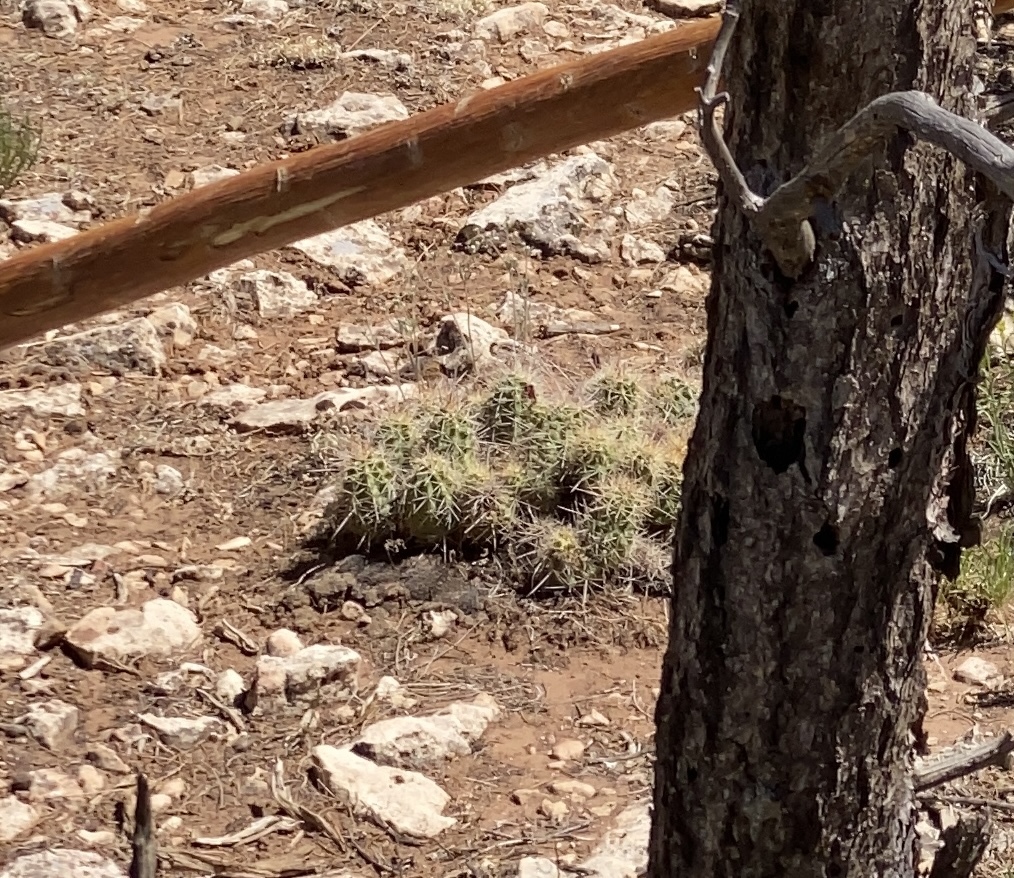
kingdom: Plantae
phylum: Tracheophyta
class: Magnoliopsida
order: Caryophyllales
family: Cactaceae
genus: Echinocereus
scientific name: Echinocereus triglochidiatus
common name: Claretcup hedgehog
